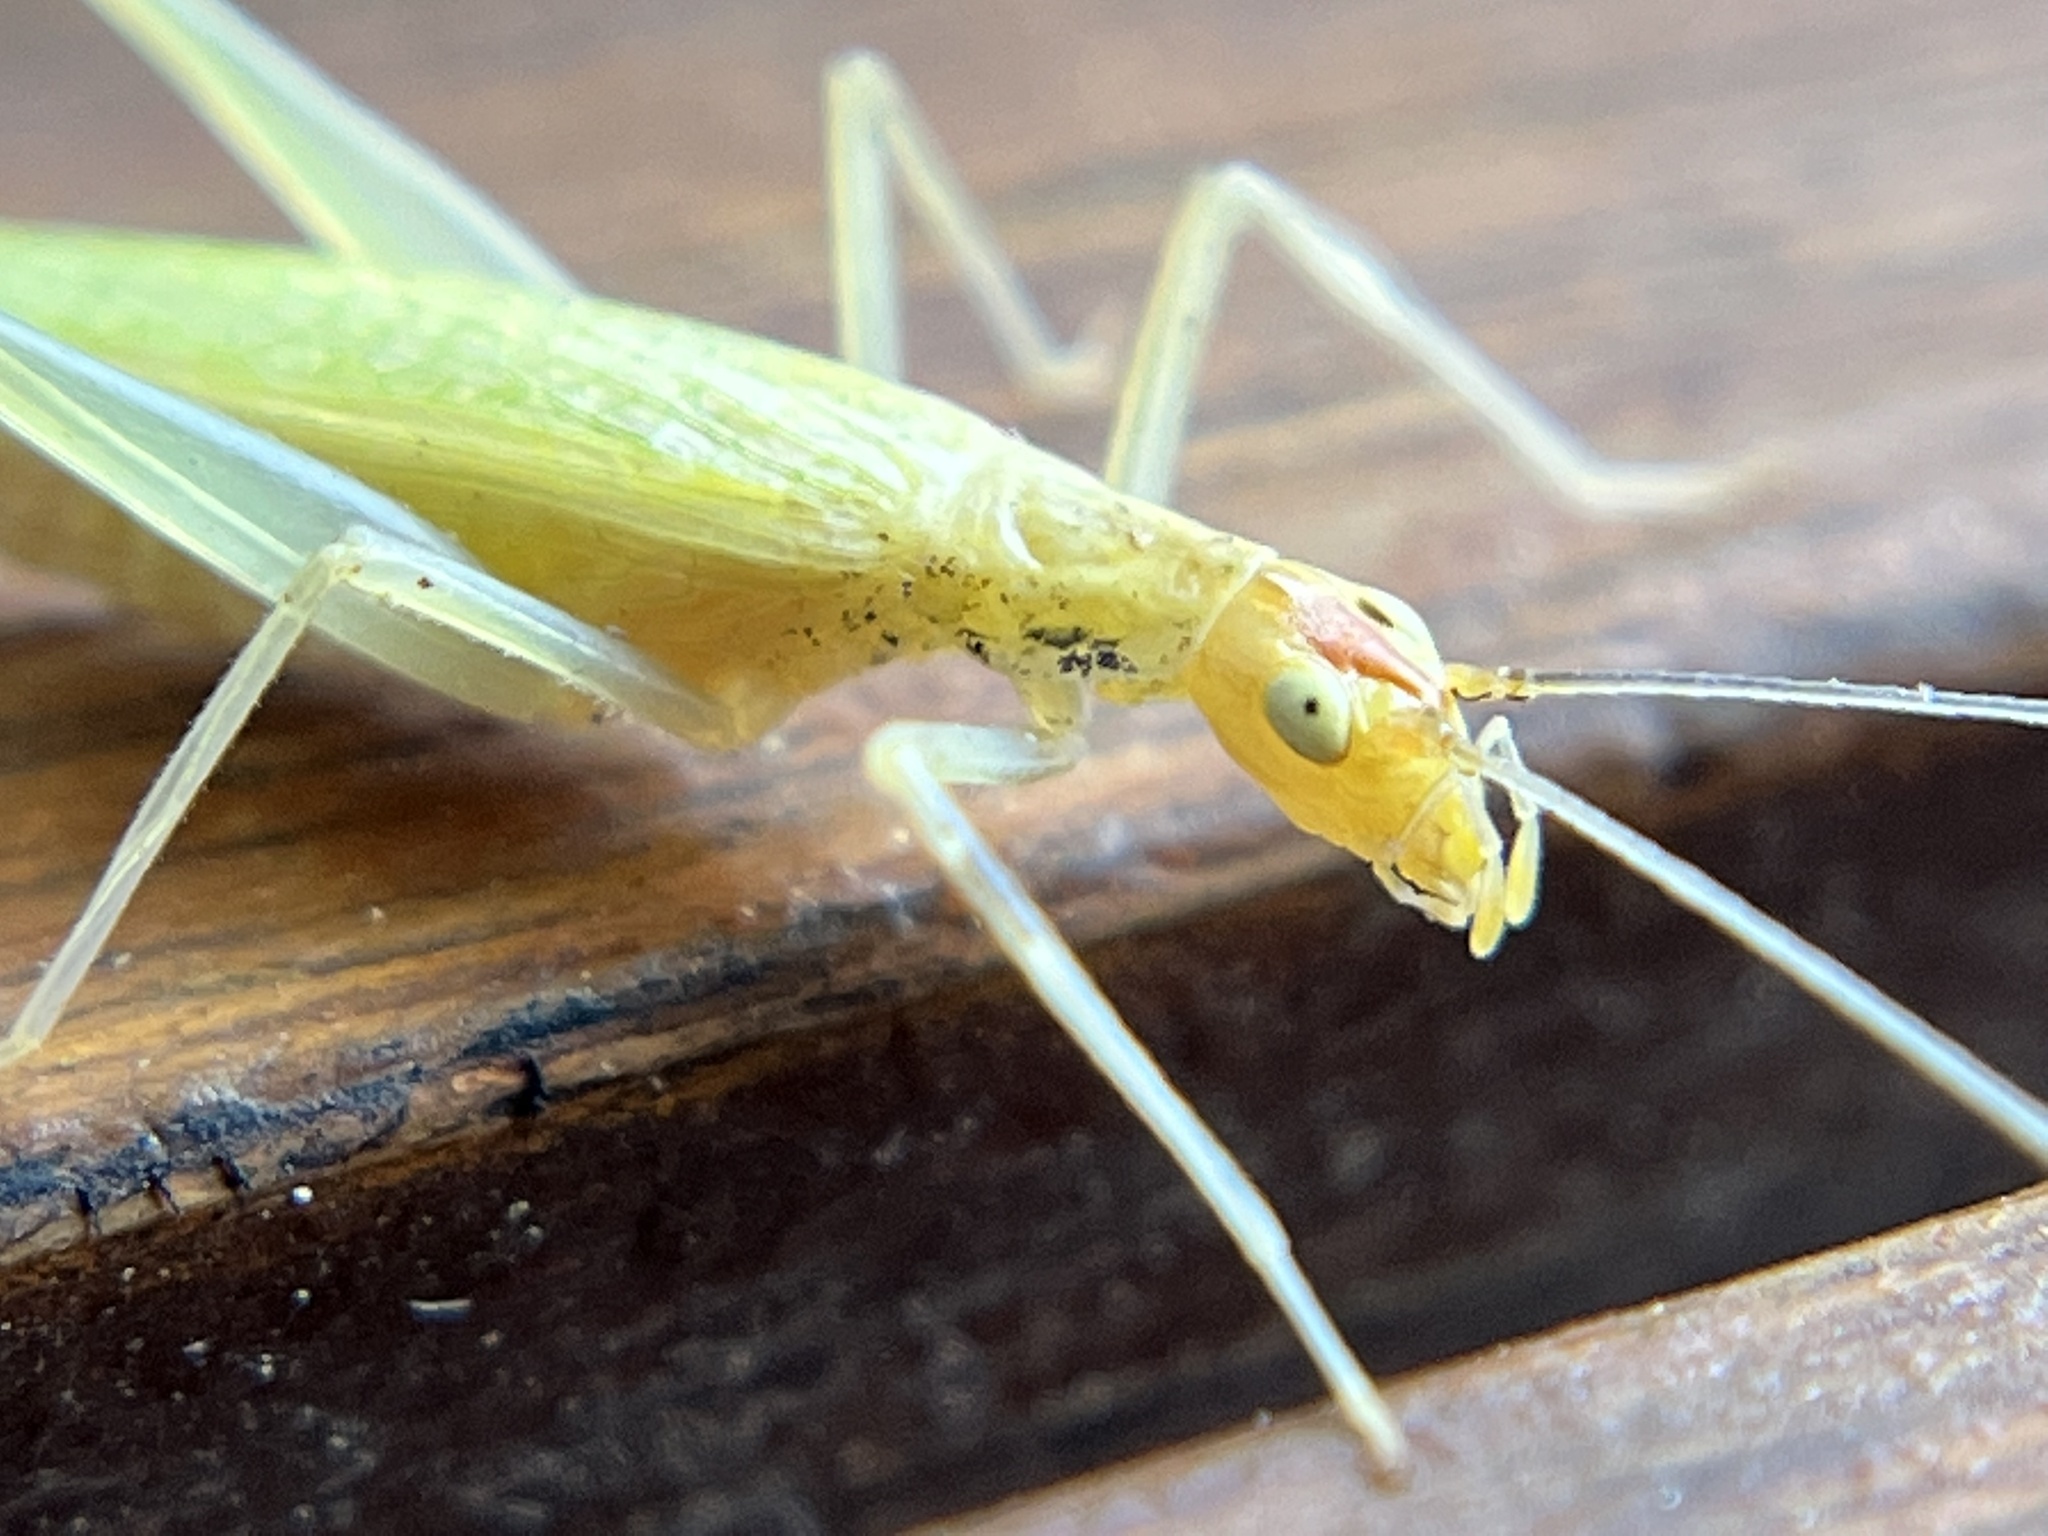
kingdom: Animalia
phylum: Arthropoda
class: Insecta
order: Orthoptera
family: Gryllidae
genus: Oecanthus
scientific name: Oecanthus niveus
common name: Narrow-winged tree cricket
